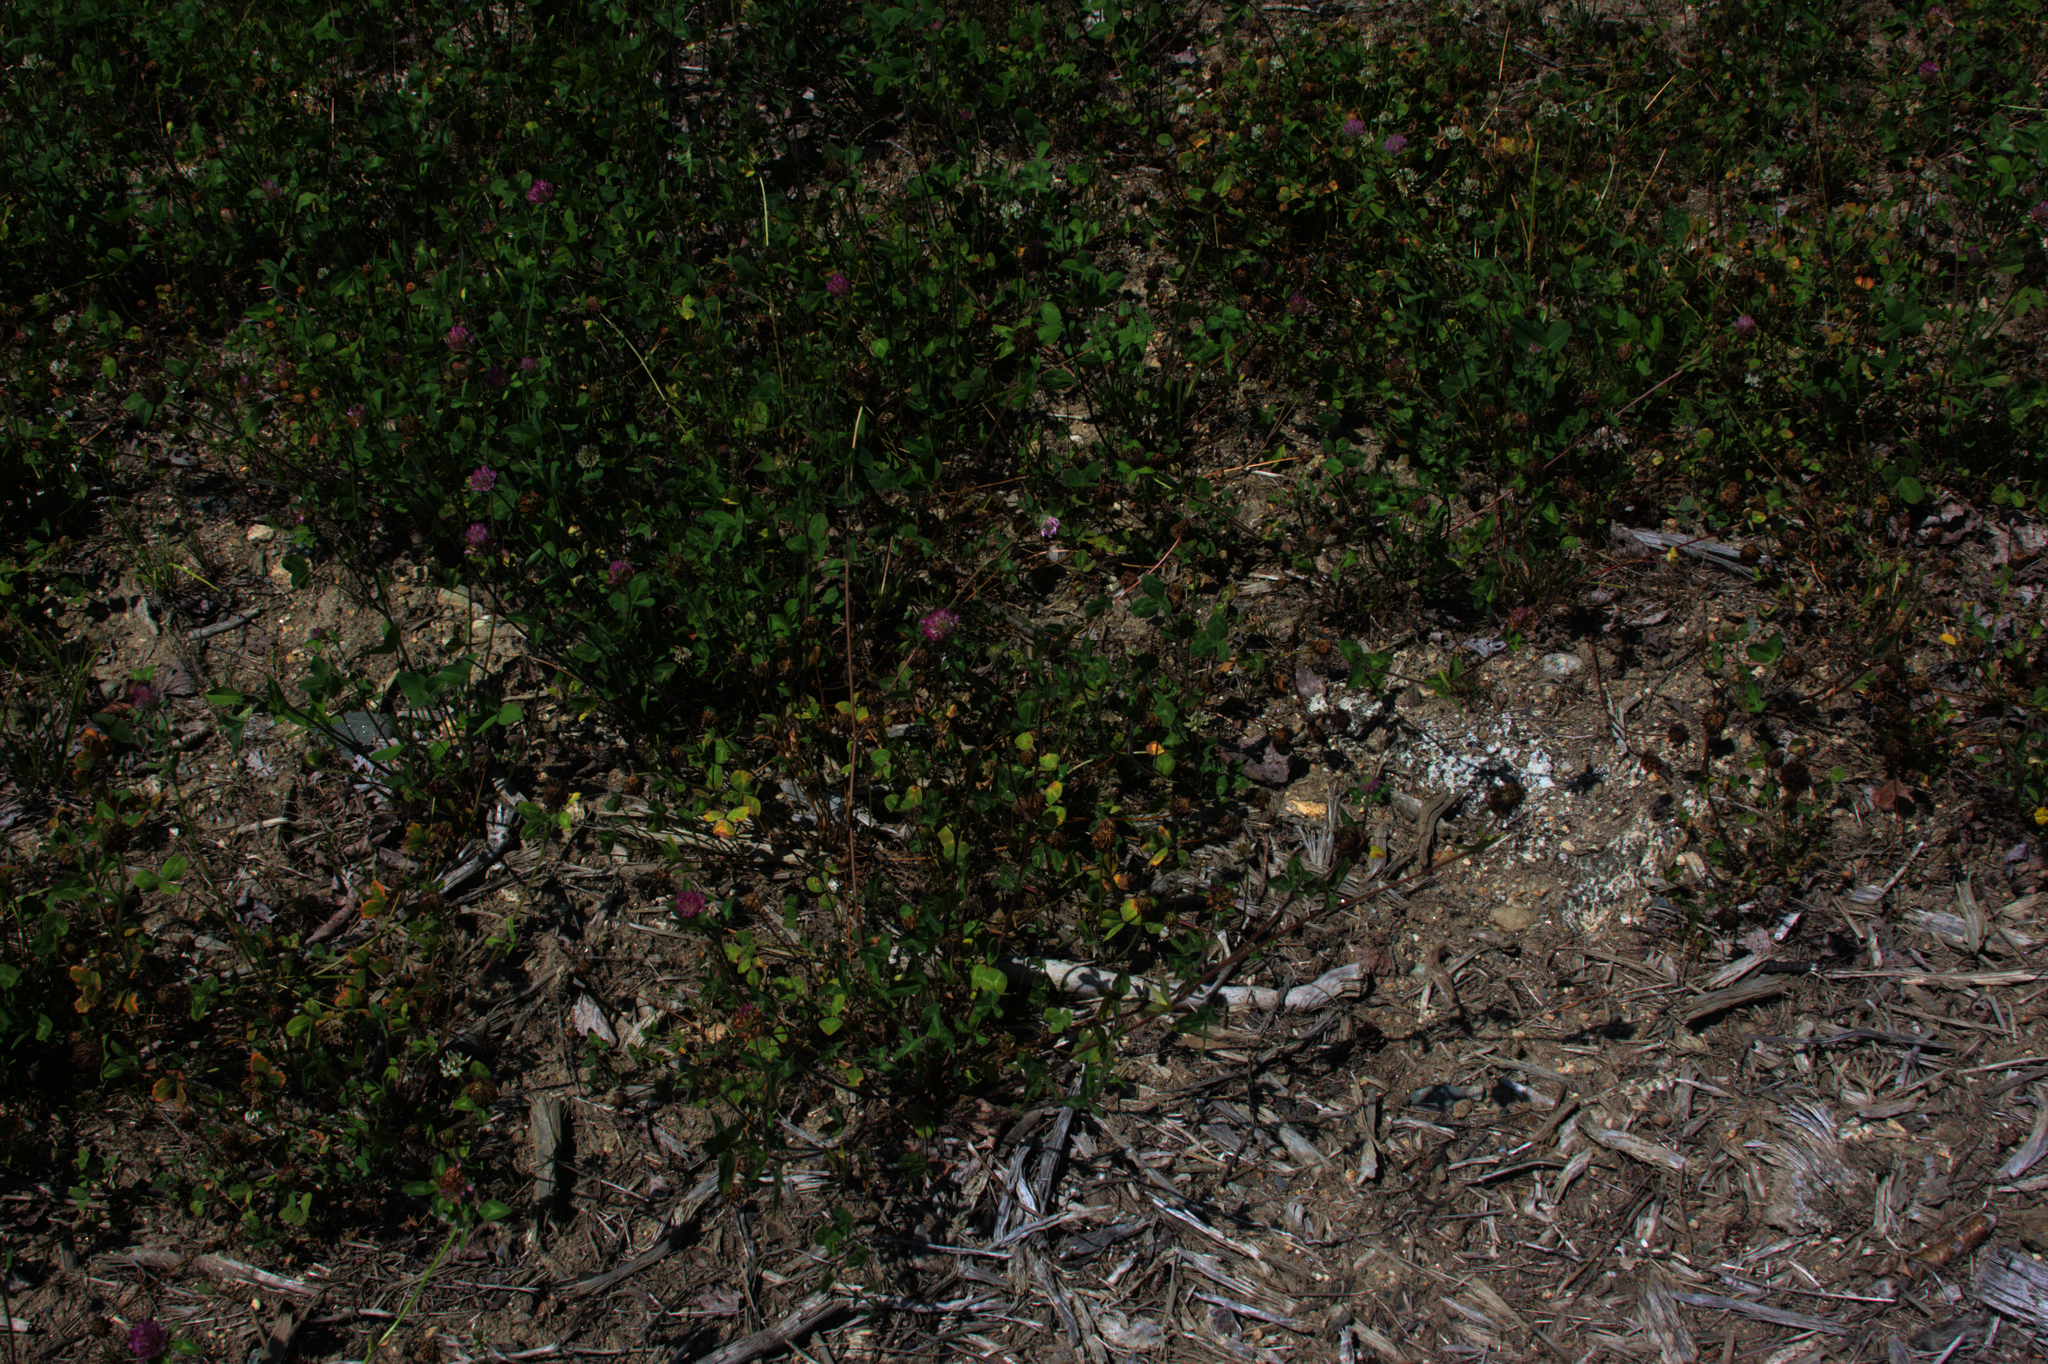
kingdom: Plantae
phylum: Tracheophyta
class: Magnoliopsida
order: Fabales
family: Fabaceae
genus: Trifolium
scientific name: Trifolium pratense
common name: Red clover
